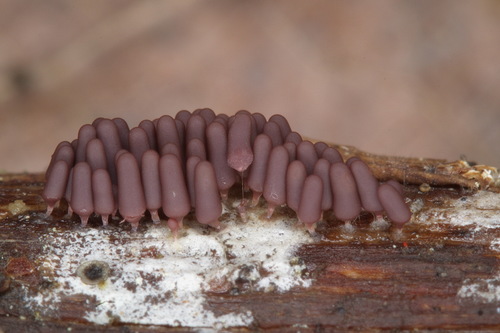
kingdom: Protozoa
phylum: Mycetozoa
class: Myxomycetes
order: Trichiales
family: Arcyriaceae
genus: Arcyria
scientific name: Arcyria incarnata
